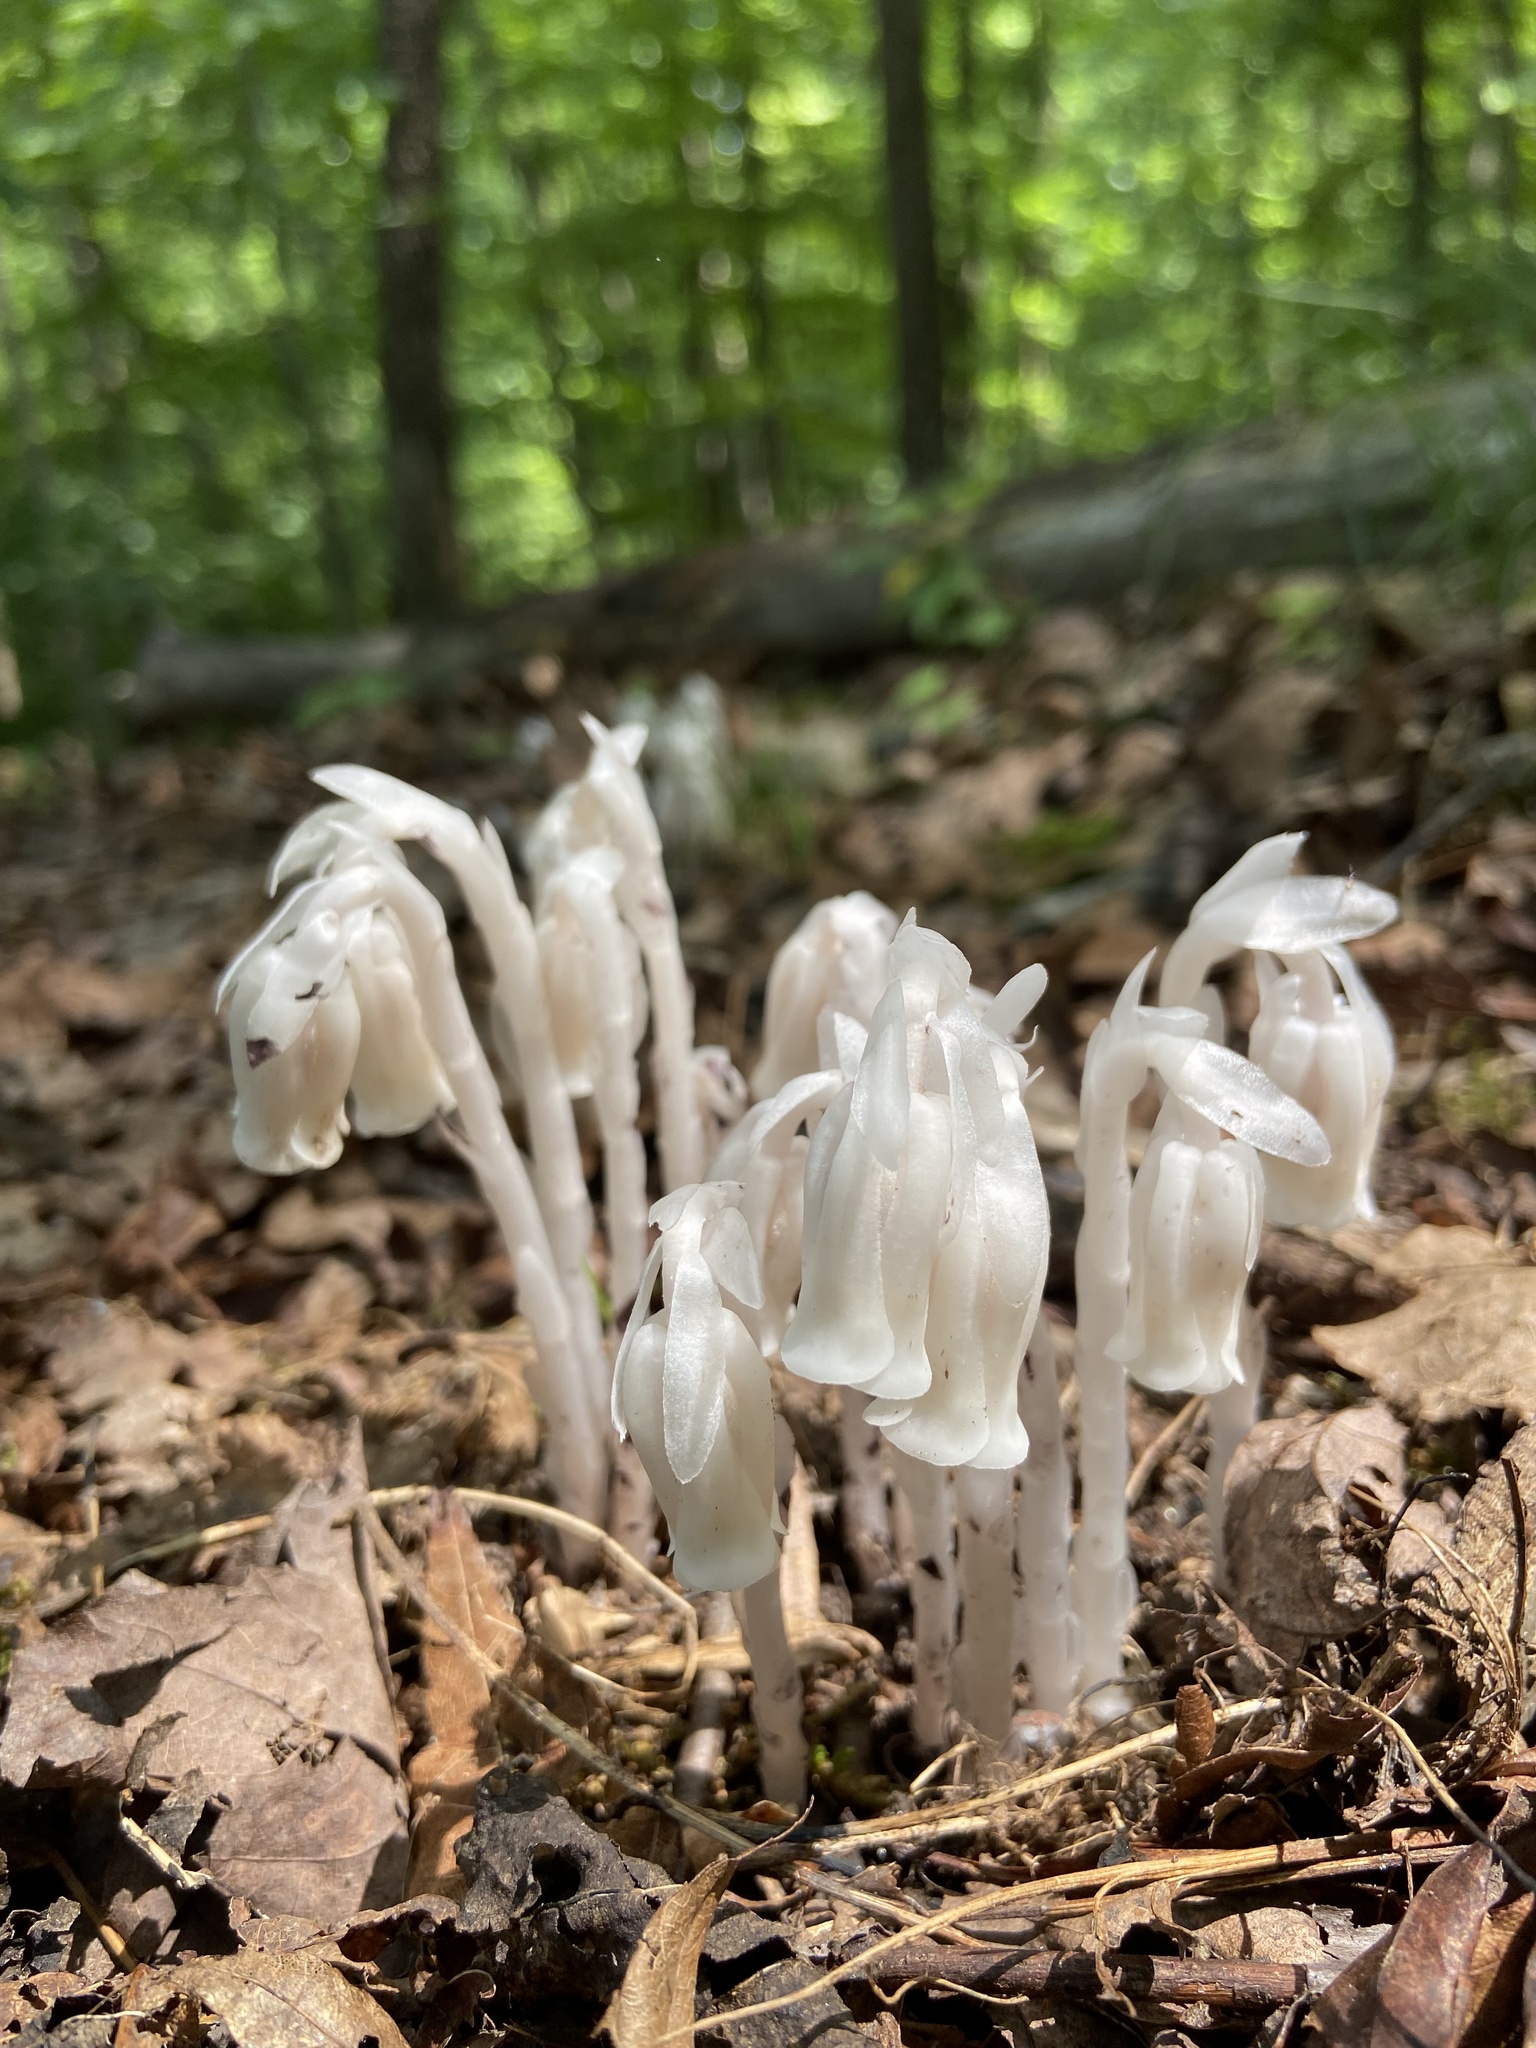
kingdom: Plantae
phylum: Tracheophyta
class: Magnoliopsida
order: Ericales
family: Ericaceae
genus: Monotropa
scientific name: Monotropa uniflora
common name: Convulsion root
